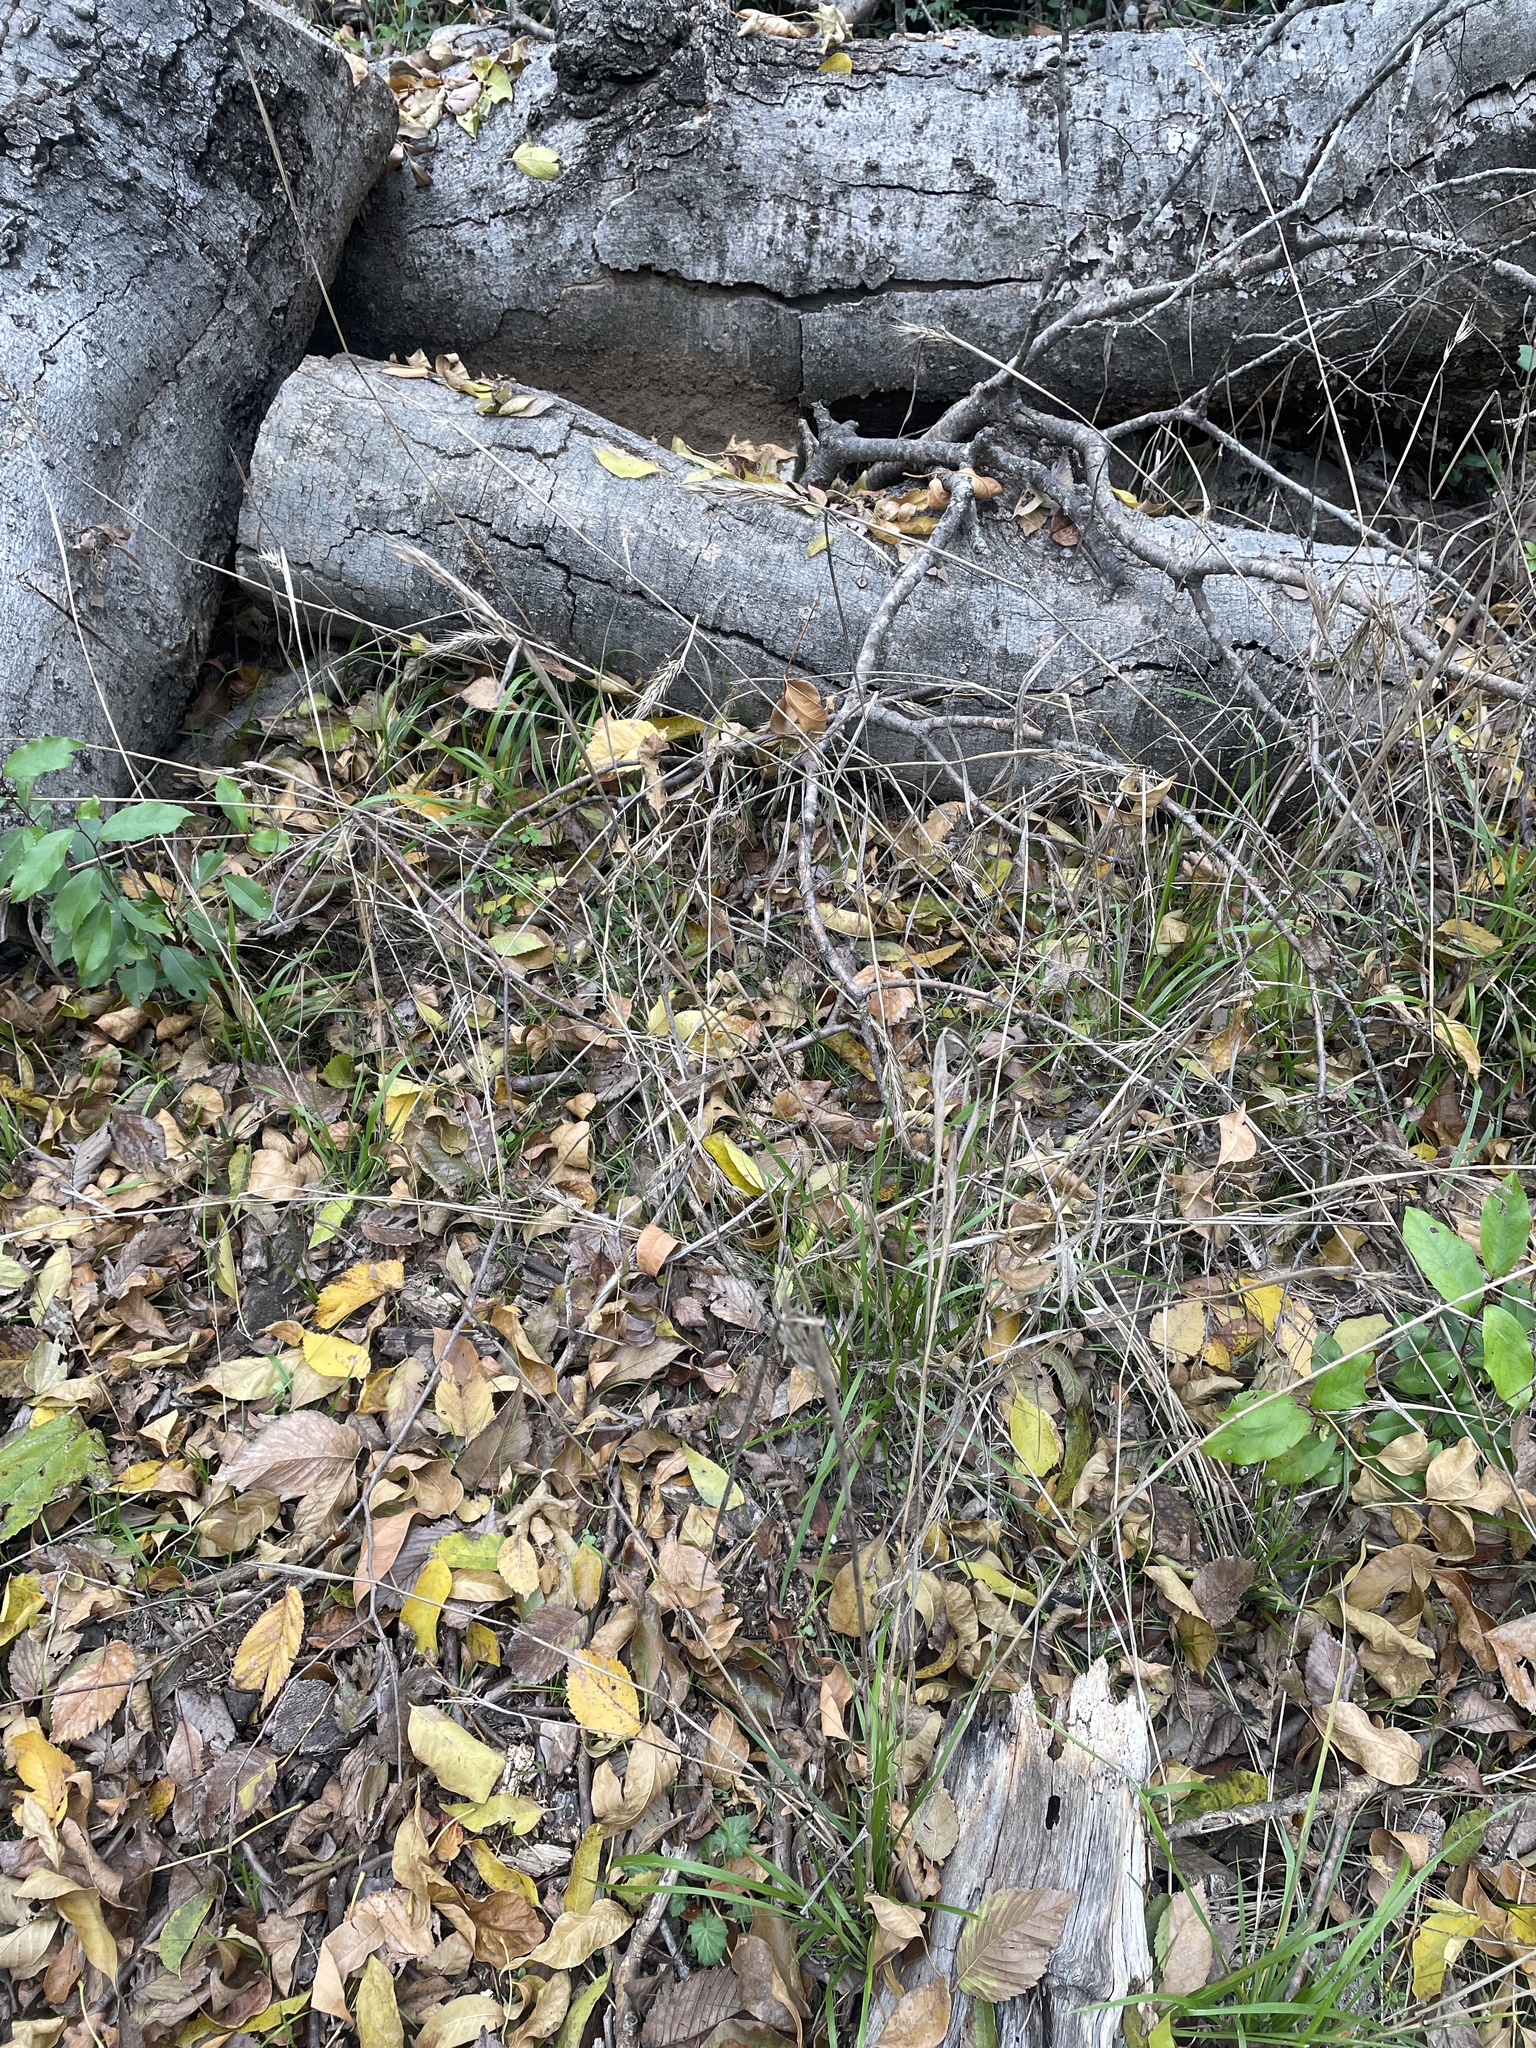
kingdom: Plantae
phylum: Tracheophyta
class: Liliopsida
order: Poales
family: Poaceae
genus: Elymus
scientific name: Elymus virginicus
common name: Common eastern wildrye
